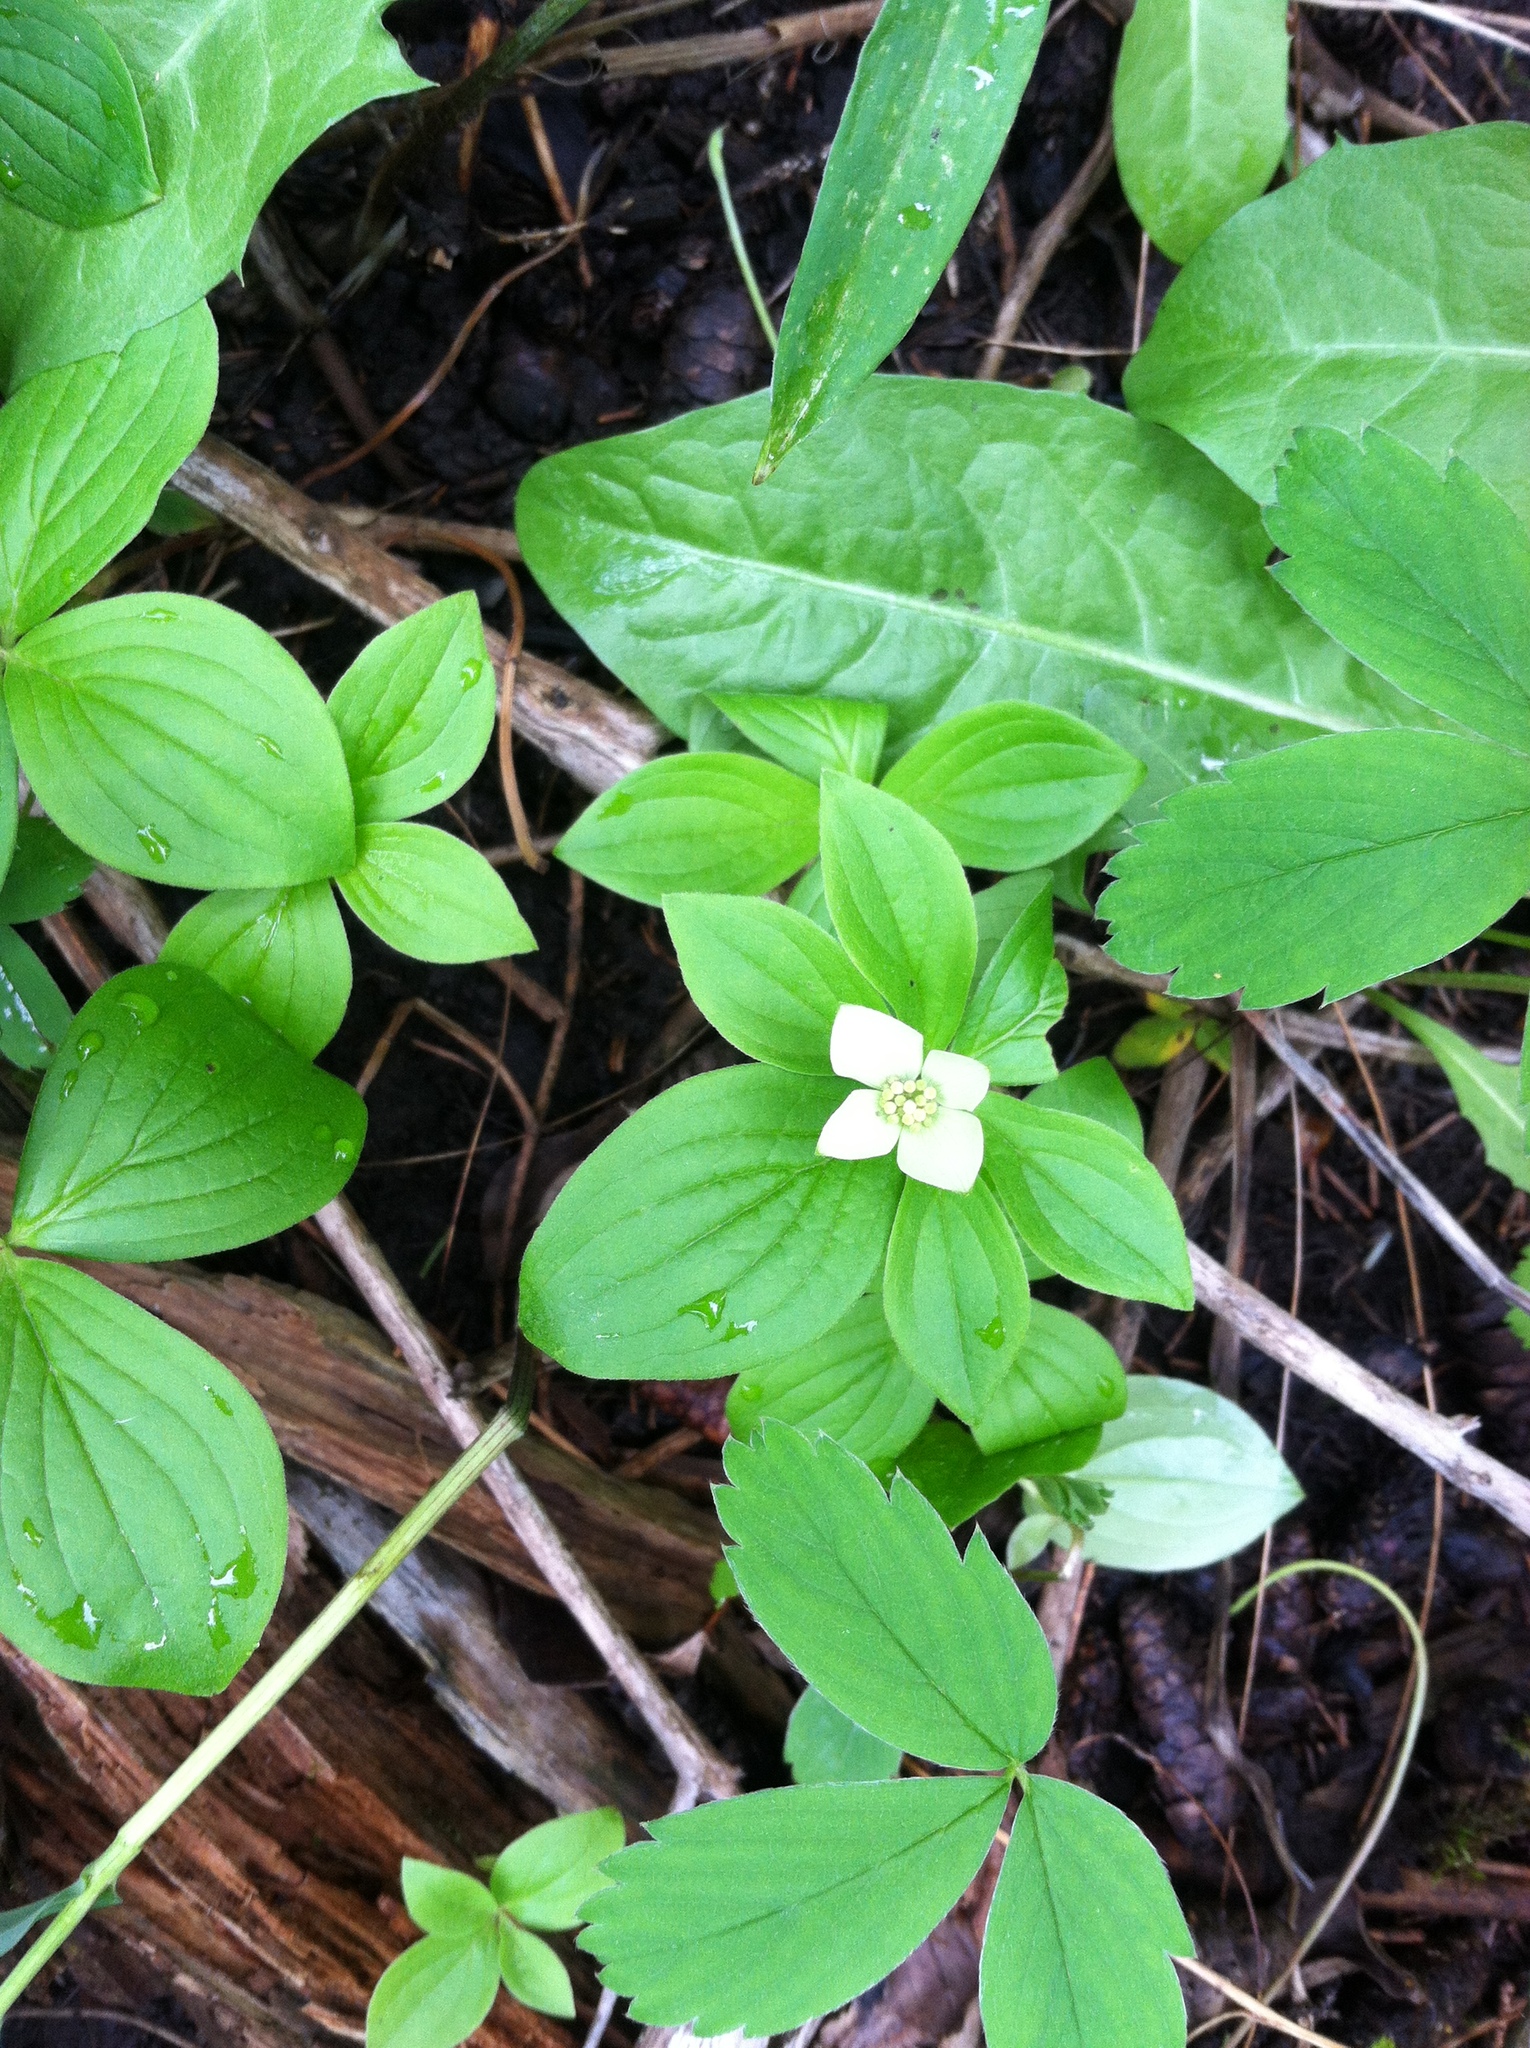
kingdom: Plantae
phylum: Tracheophyta
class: Magnoliopsida
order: Cornales
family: Cornaceae
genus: Cornus
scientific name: Cornus canadensis
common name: Creeping dogwood
